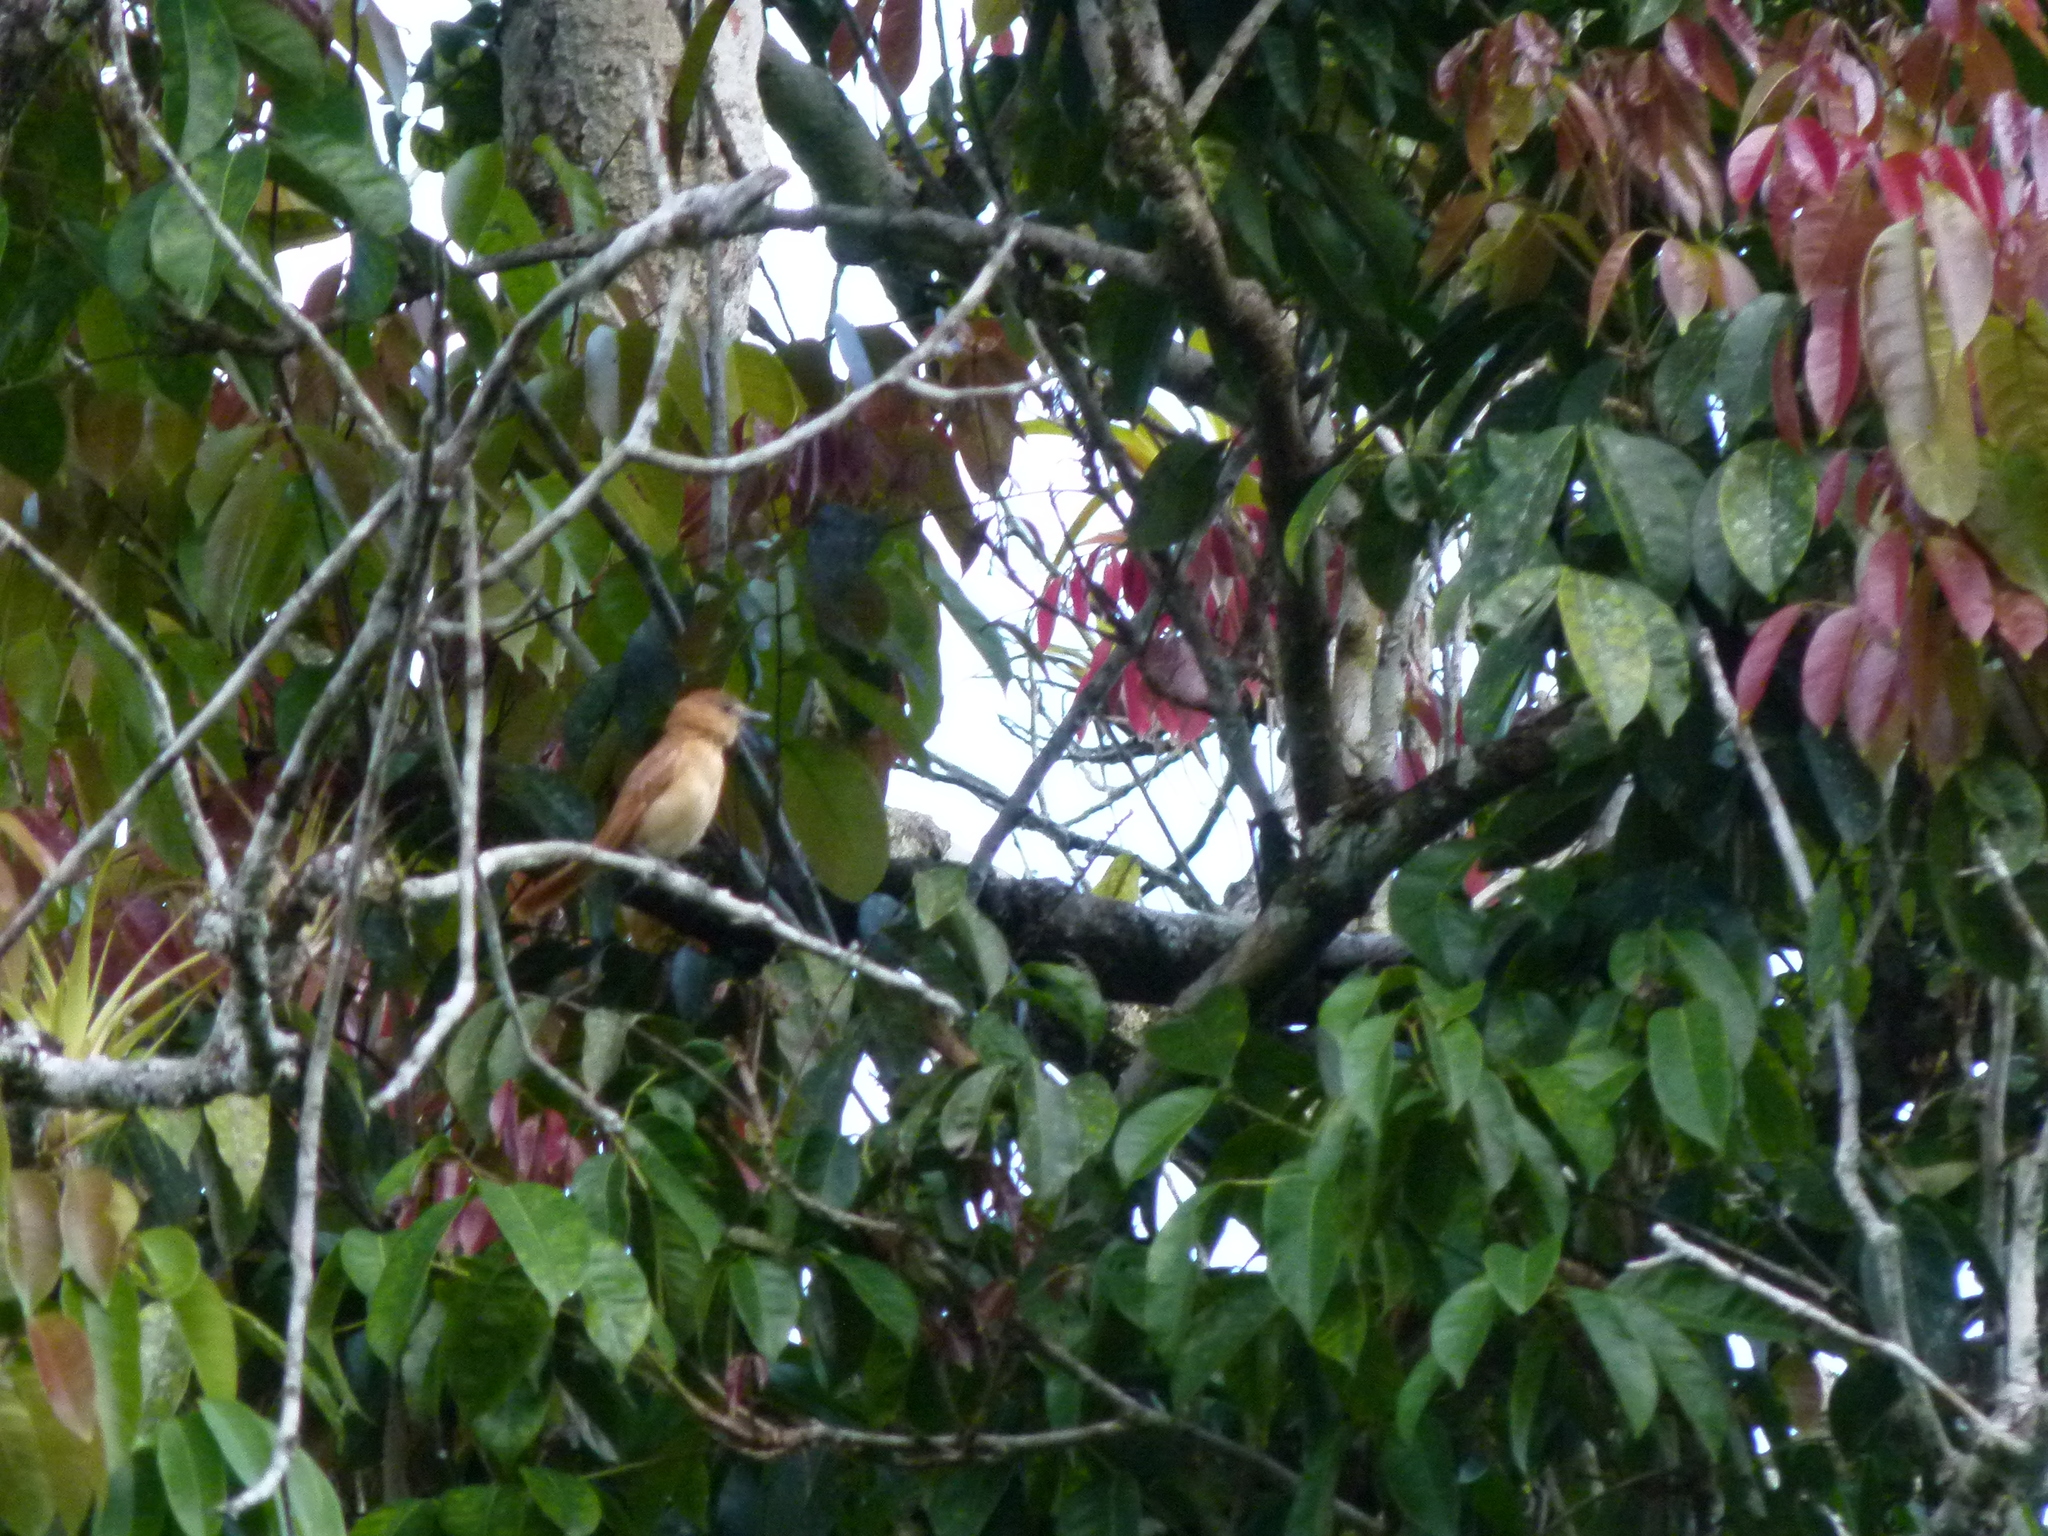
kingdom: Animalia
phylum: Chordata
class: Aves
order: Passeriformes
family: Cotingidae
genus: Pachyramphus
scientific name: Pachyramphus cinnamomeus
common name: Cinnamon becard
